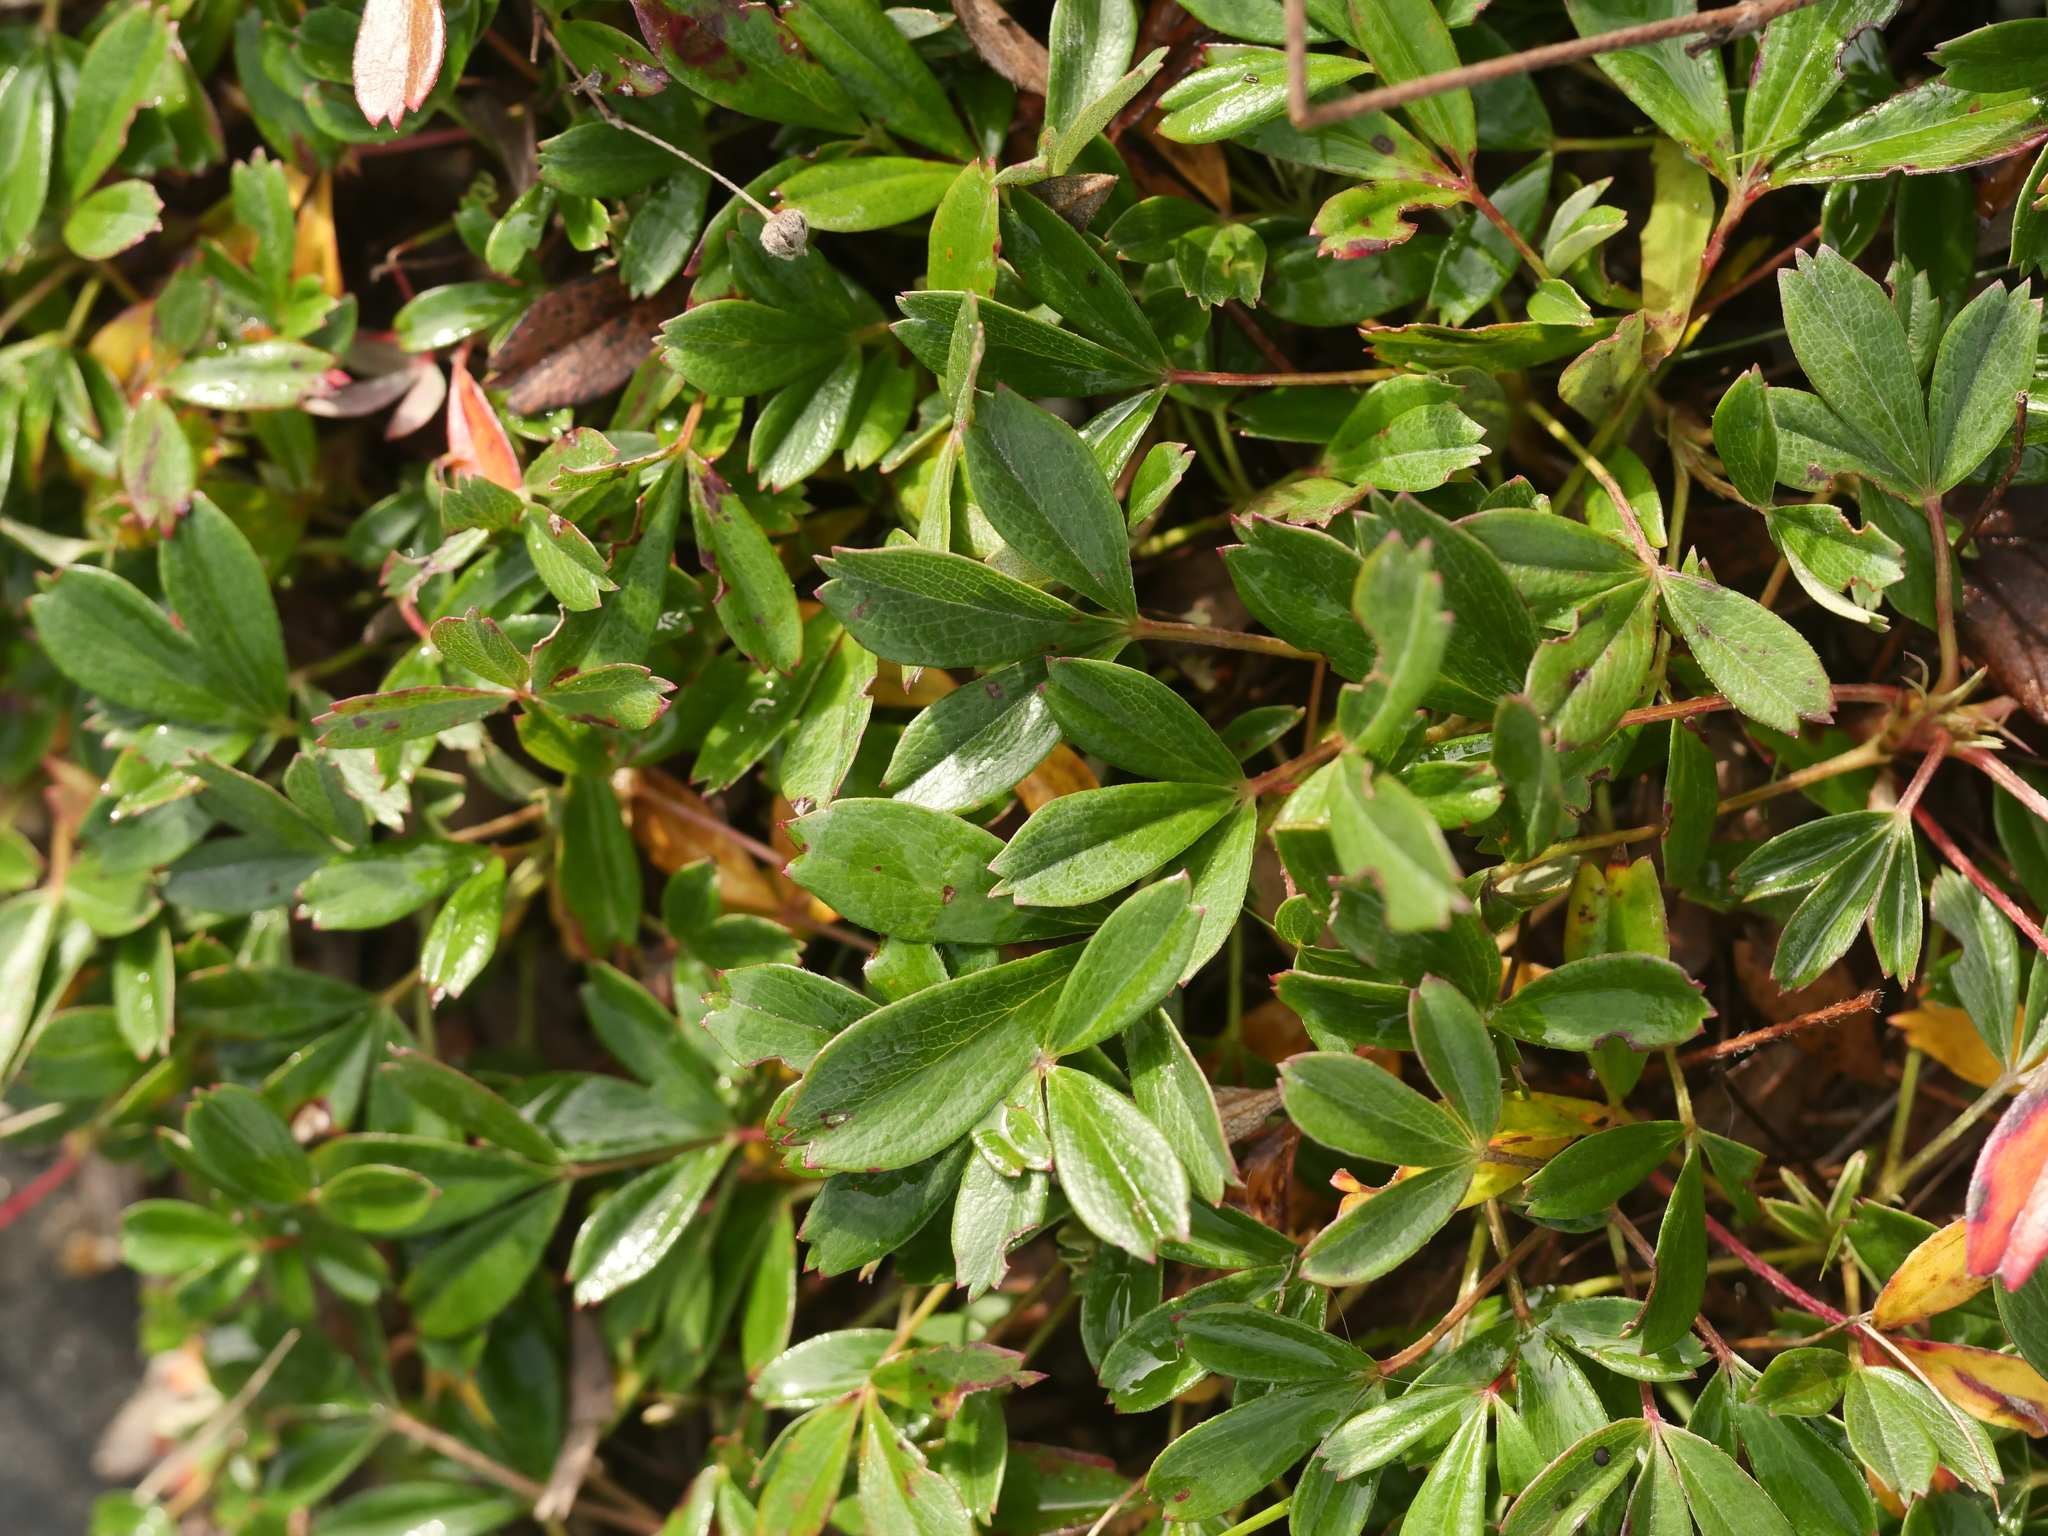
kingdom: Plantae
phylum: Tracheophyta
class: Magnoliopsida
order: Rosales
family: Rosaceae
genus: Sibbaldia
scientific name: Sibbaldia tridentata
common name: Three-toothed cinquefoil
